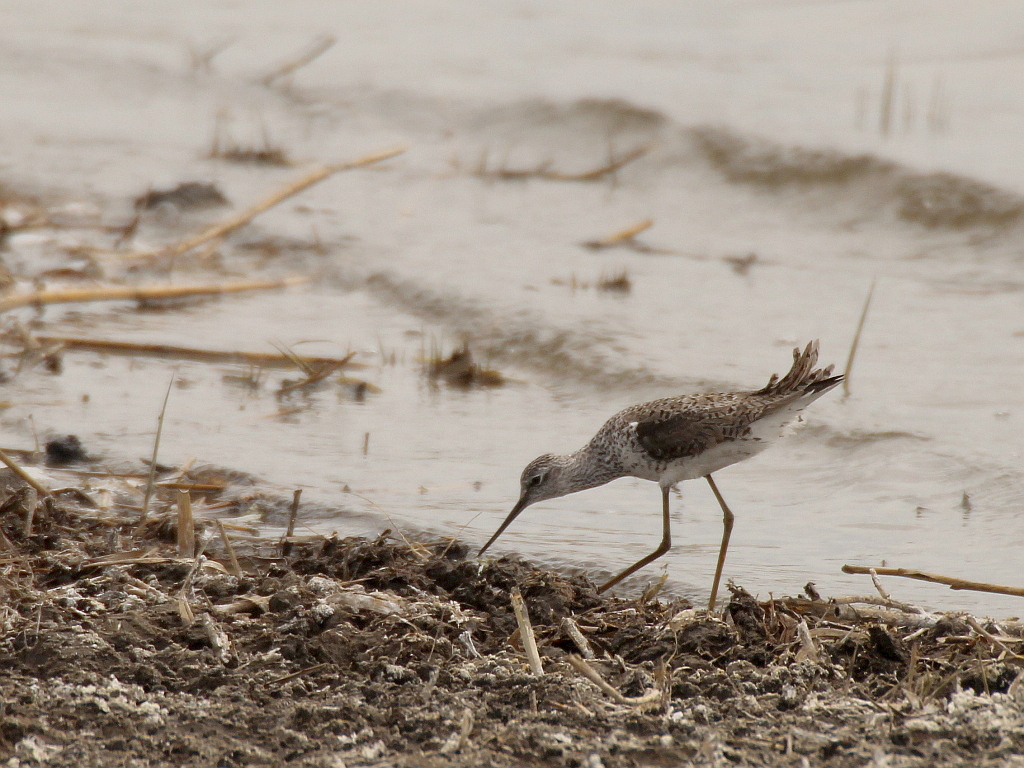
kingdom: Animalia
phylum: Chordata
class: Aves
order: Charadriiformes
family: Scolopacidae
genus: Tringa
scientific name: Tringa stagnatilis
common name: Marsh sandpiper
